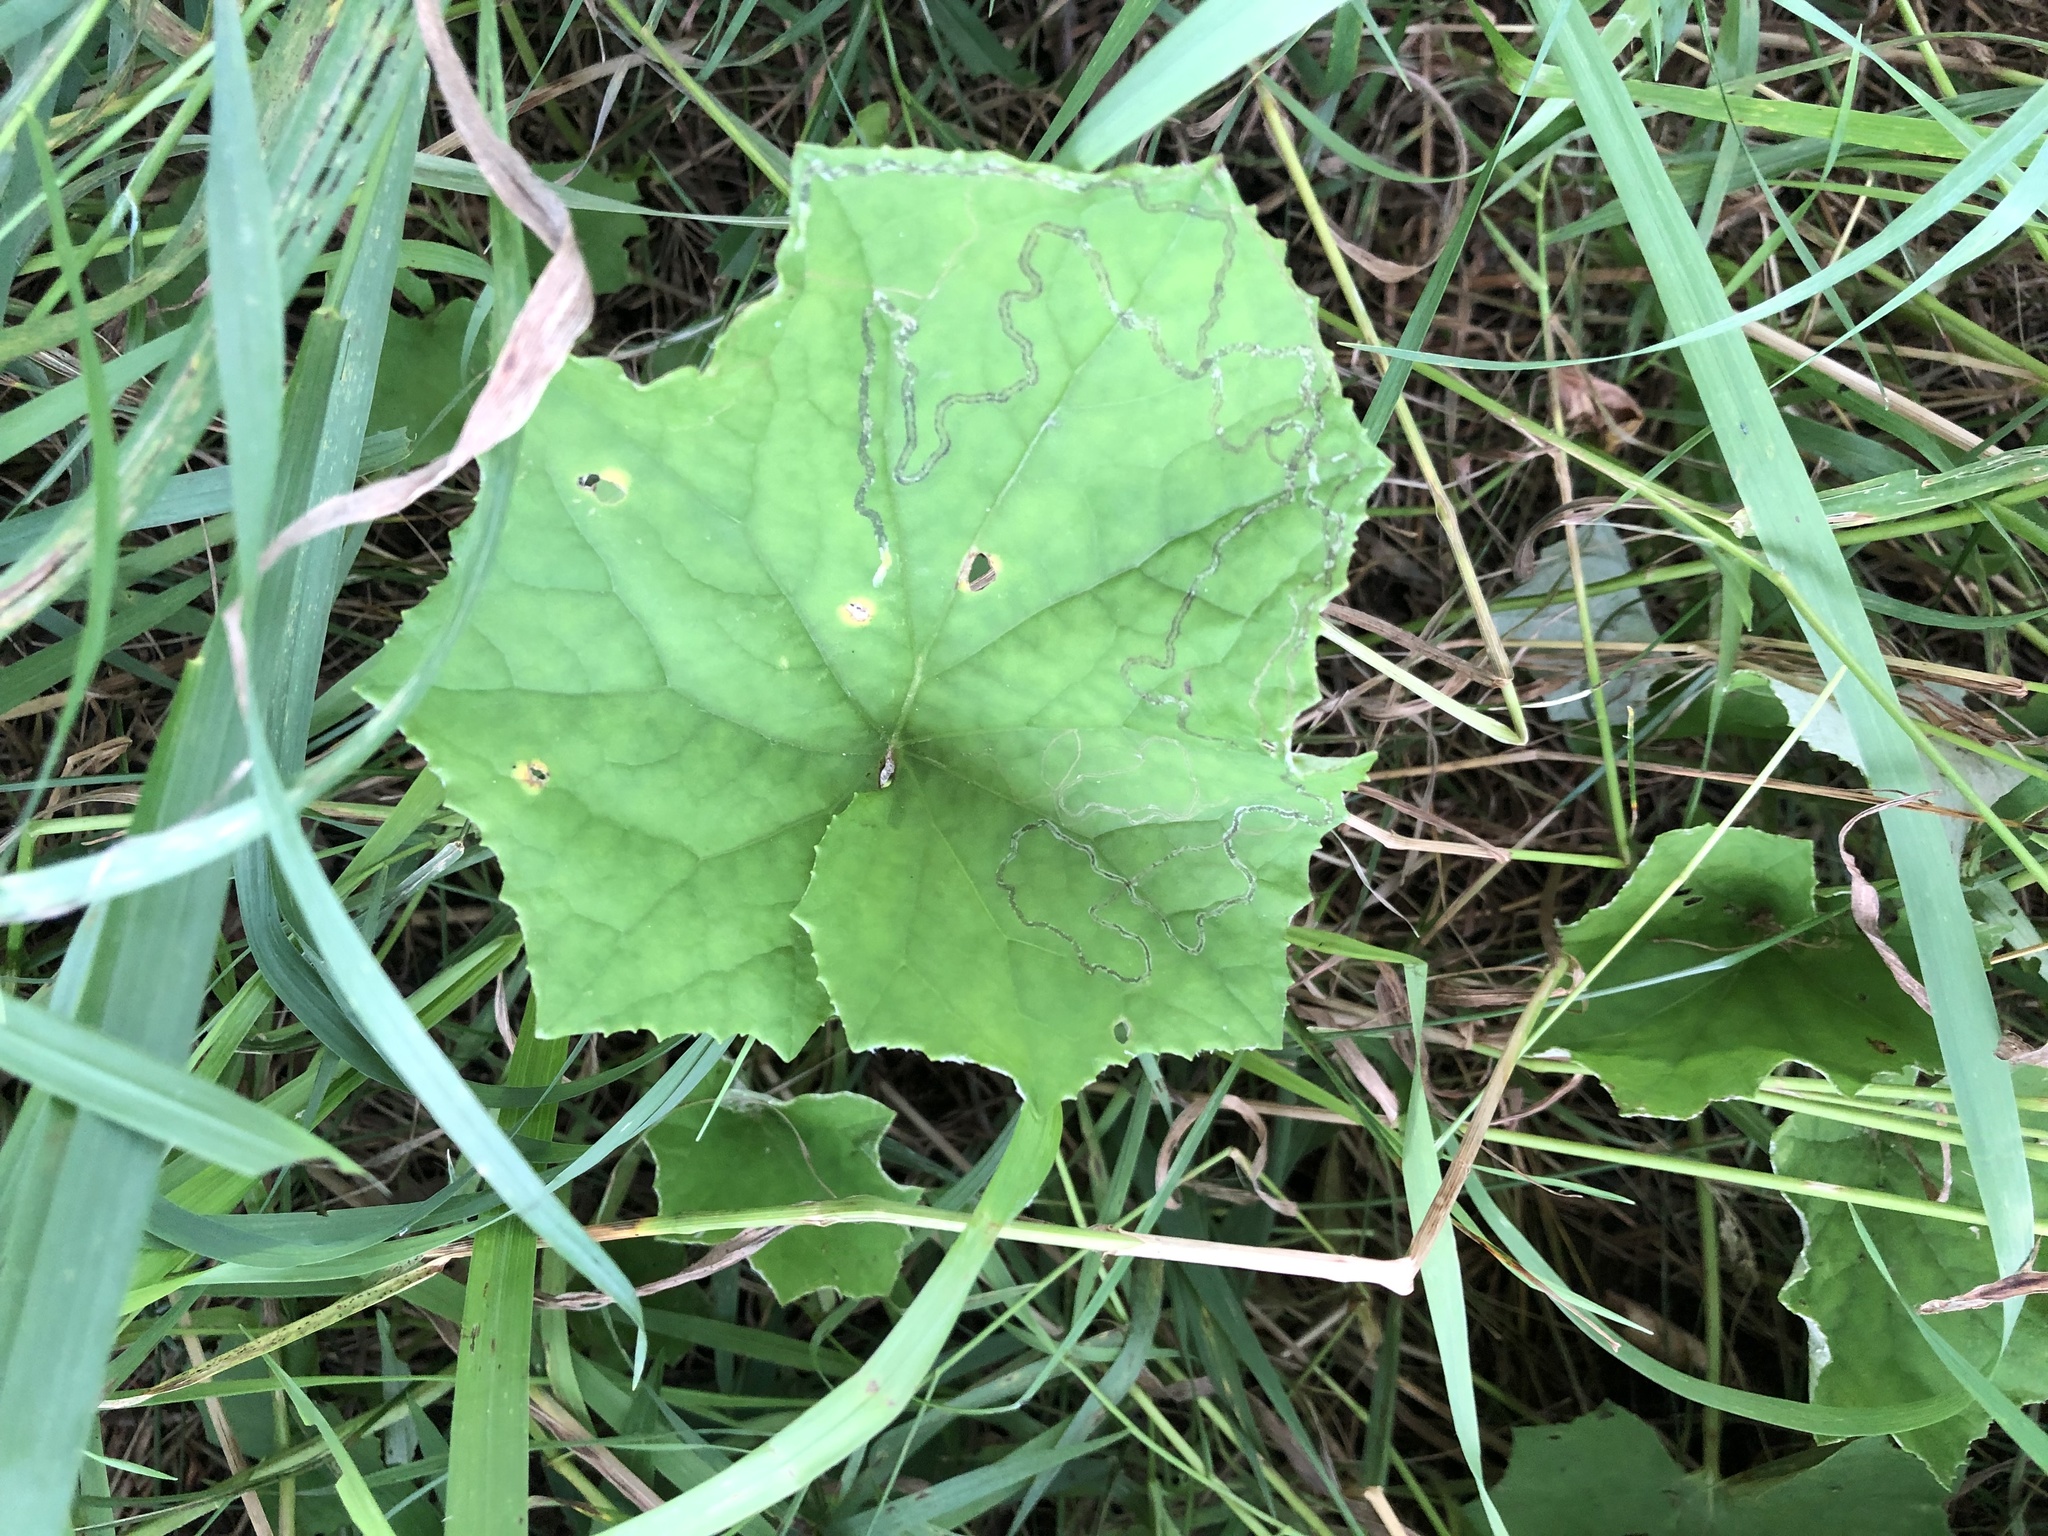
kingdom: Plantae
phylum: Tracheophyta
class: Magnoliopsida
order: Asterales
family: Asteraceae
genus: Tussilago
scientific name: Tussilago farfara
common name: Coltsfoot
